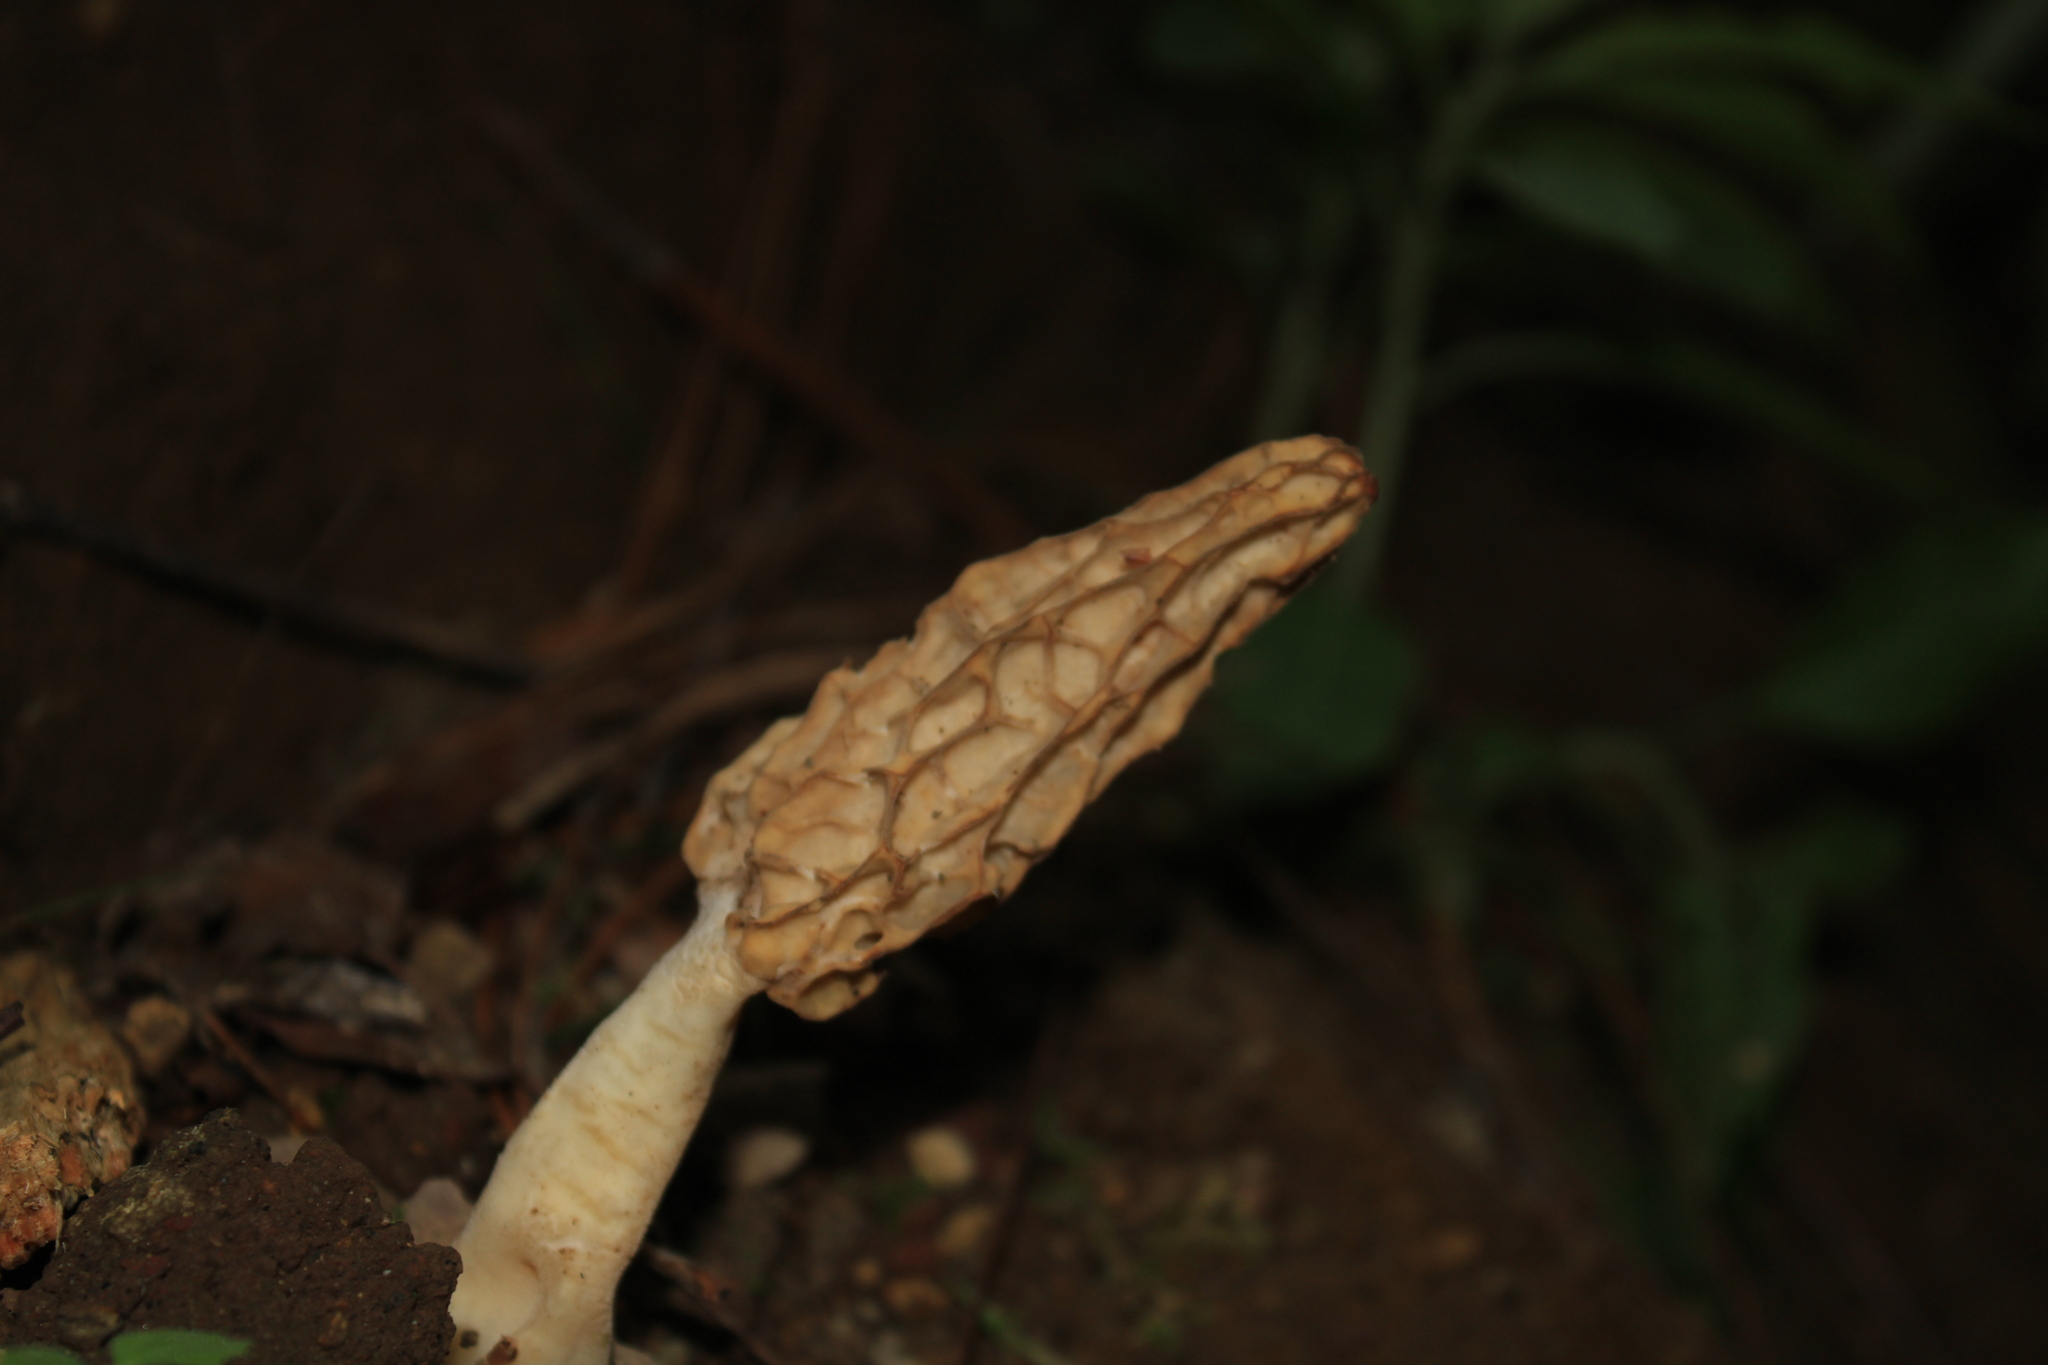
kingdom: Fungi
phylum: Ascomycota
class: Pezizomycetes
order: Pezizales
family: Morchellaceae
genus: Morchella
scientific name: Morchella rufobrunnea
